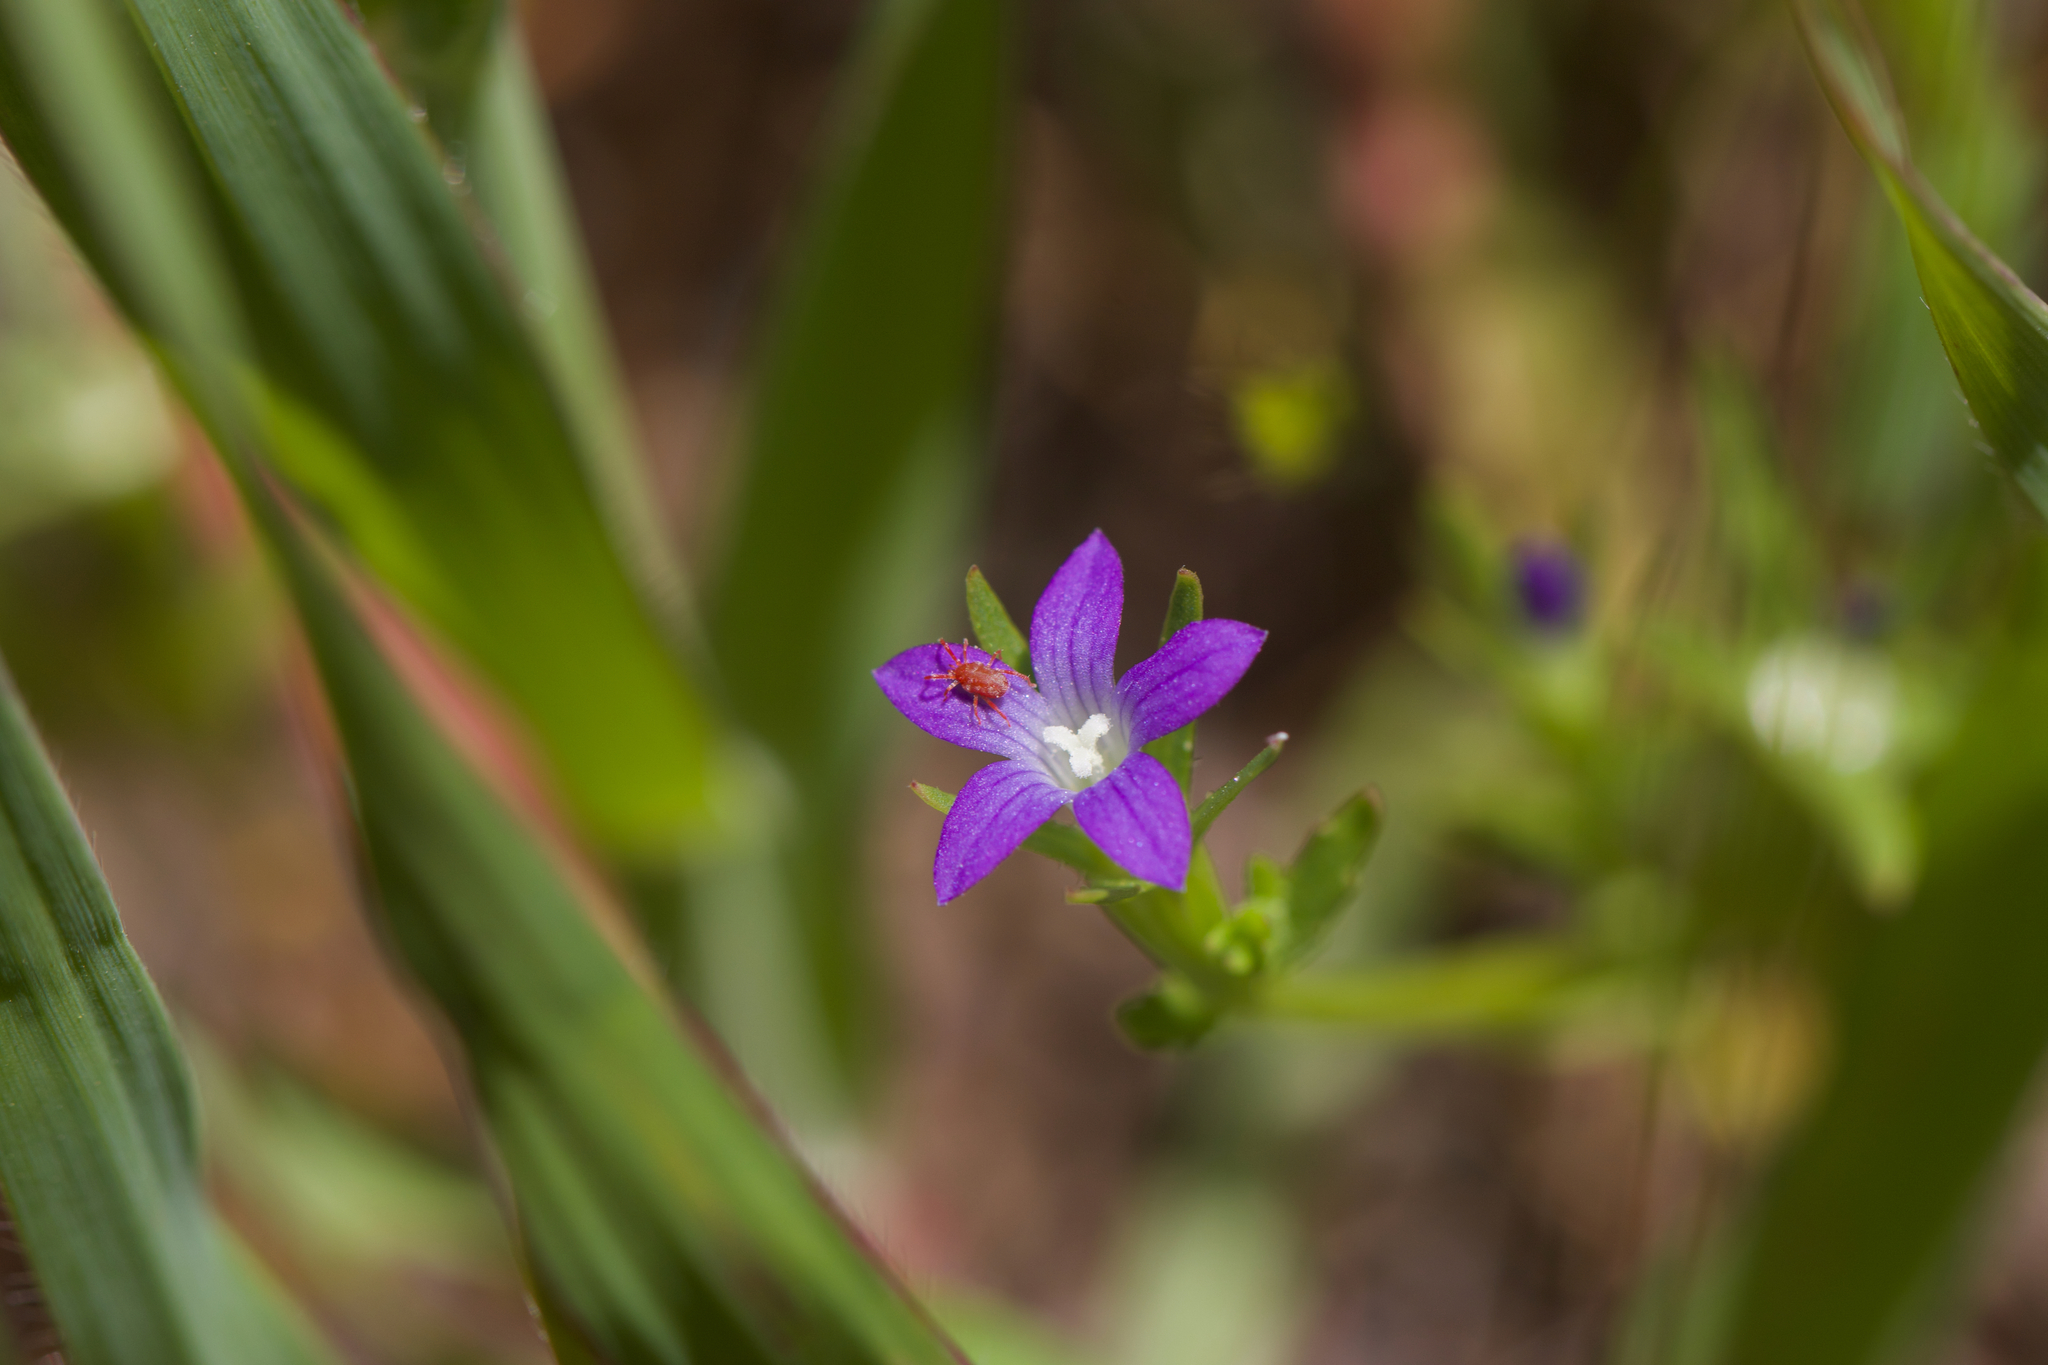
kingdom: Plantae
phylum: Tracheophyta
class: Magnoliopsida
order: Asterales
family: Campanulaceae
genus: Githopsis
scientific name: Githopsis specularioides
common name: Common bluecup
